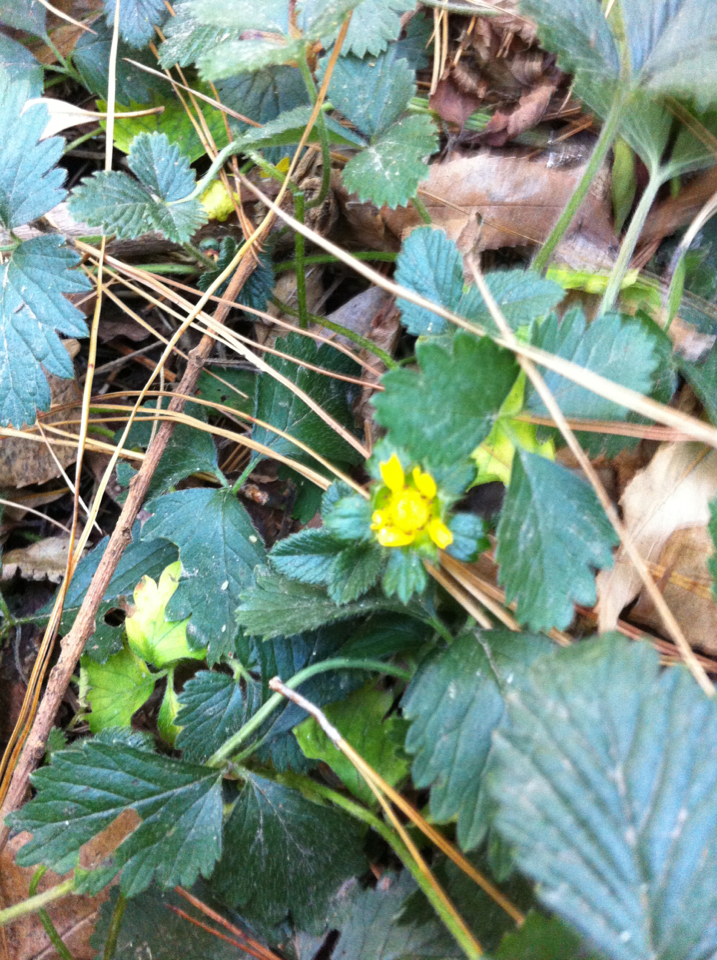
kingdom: Plantae
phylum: Tracheophyta
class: Magnoliopsida
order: Rosales
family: Rosaceae
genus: Potentilla
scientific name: Potentilla indica
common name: Yellow-flowered strawberry
